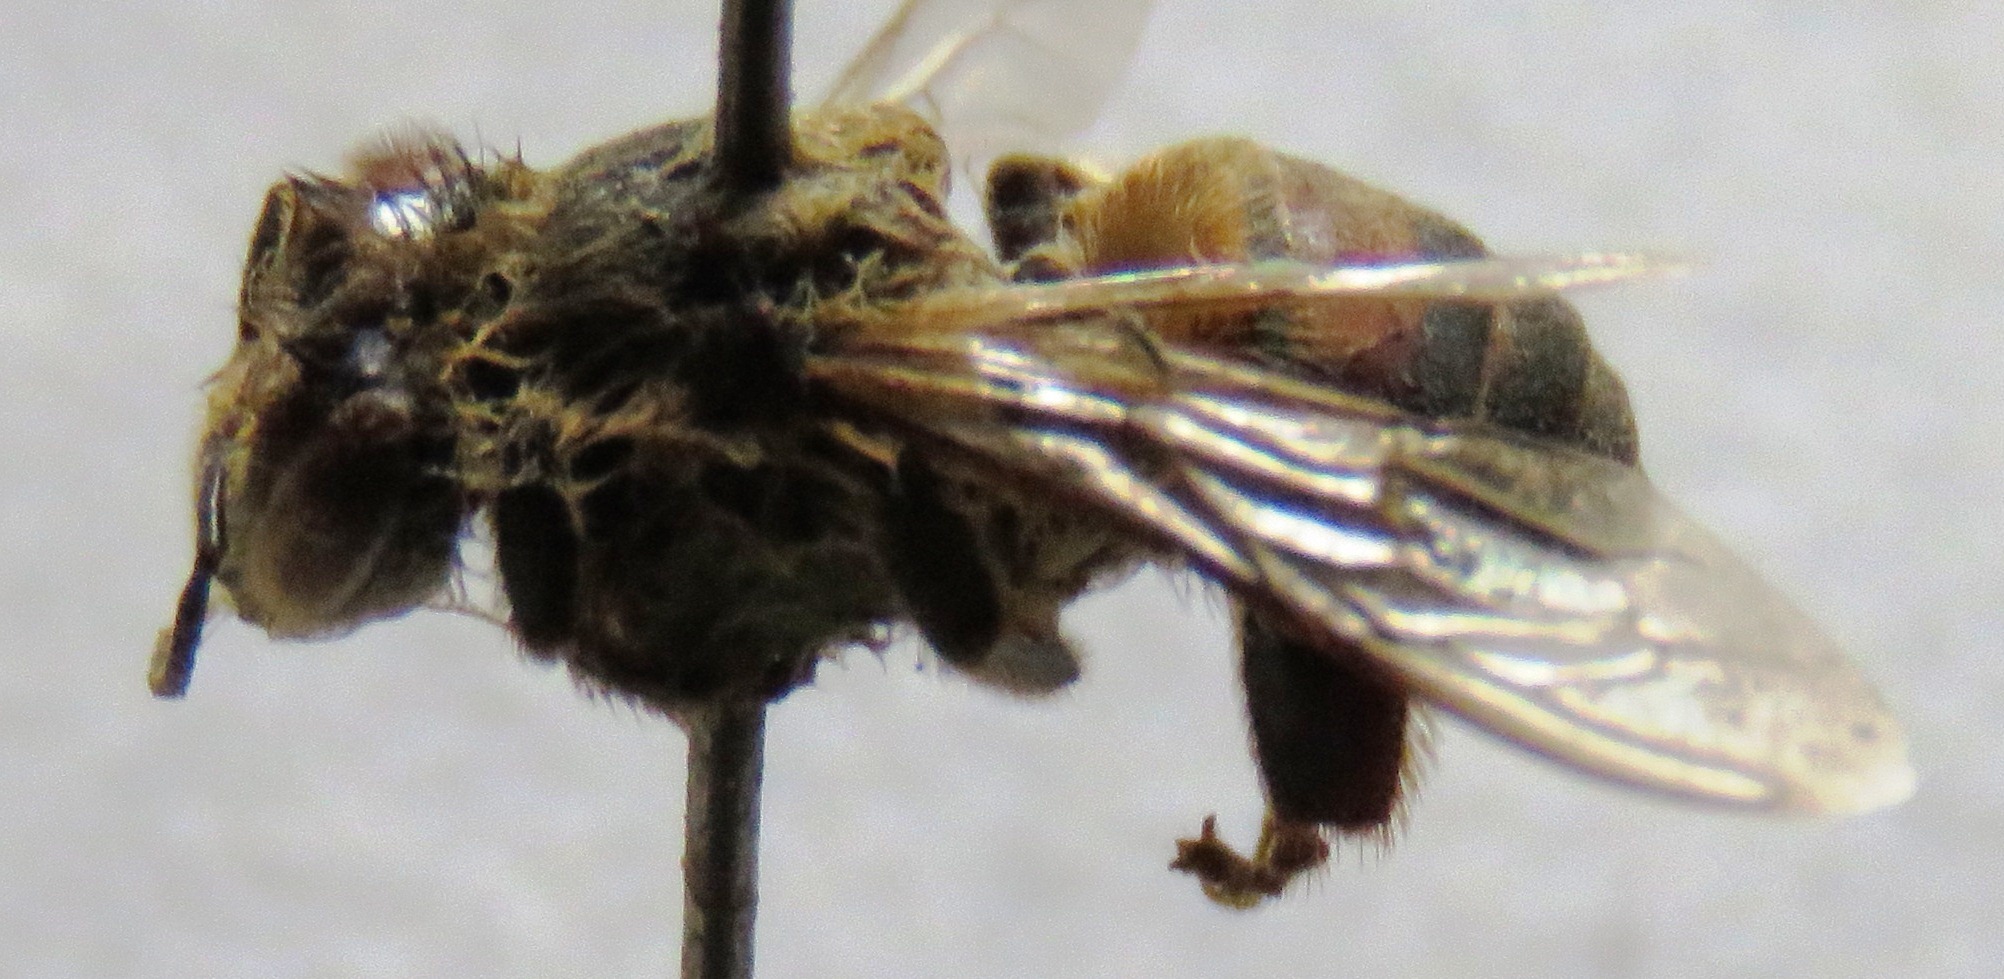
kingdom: Animalia
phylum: Arthropoda
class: Insecta
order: Hymenoptera
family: Apidae
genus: Apis
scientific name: Apis mellifera
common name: Honey bee
